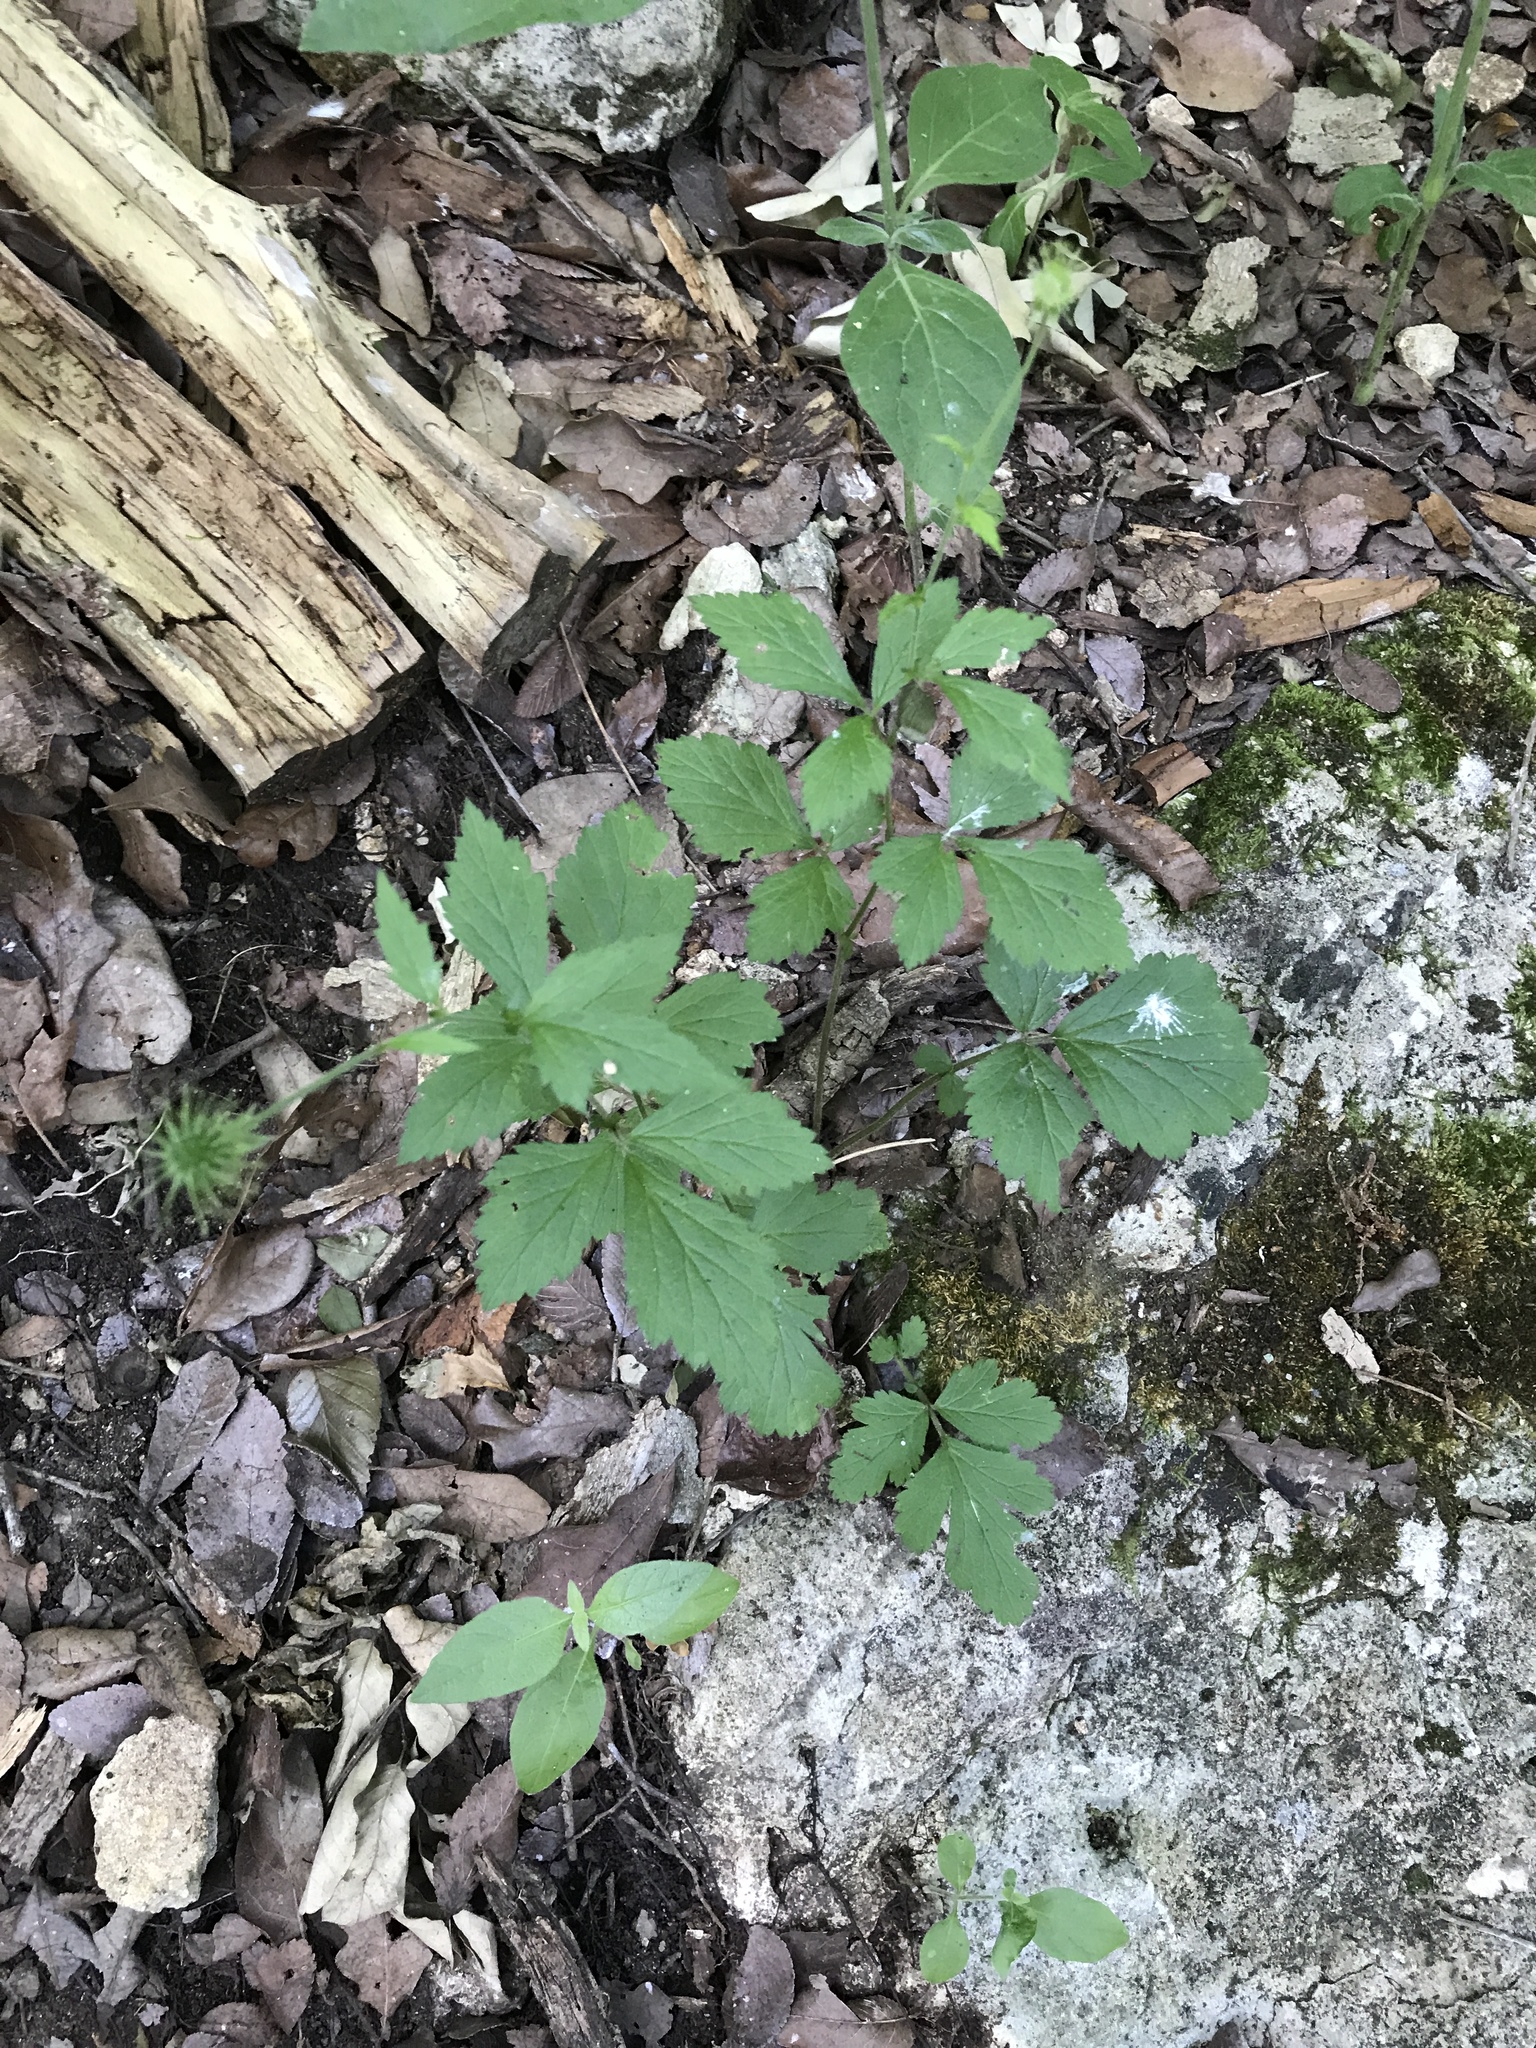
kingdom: Plantae
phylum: Tracheophyta
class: Magnoliopsida
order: Rosales
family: Rosaceae
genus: Geum
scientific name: Geum canadense
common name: White avens
